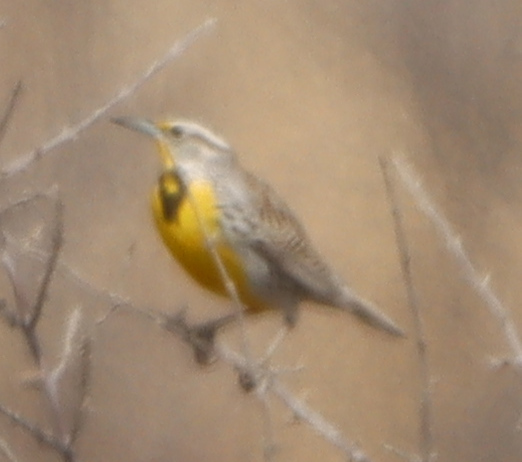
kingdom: Animalia
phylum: Chordata
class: Aves
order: Passeriformes
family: Icteridae
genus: Sturnella
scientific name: Sturnella neglecta
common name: Western meadowlark
